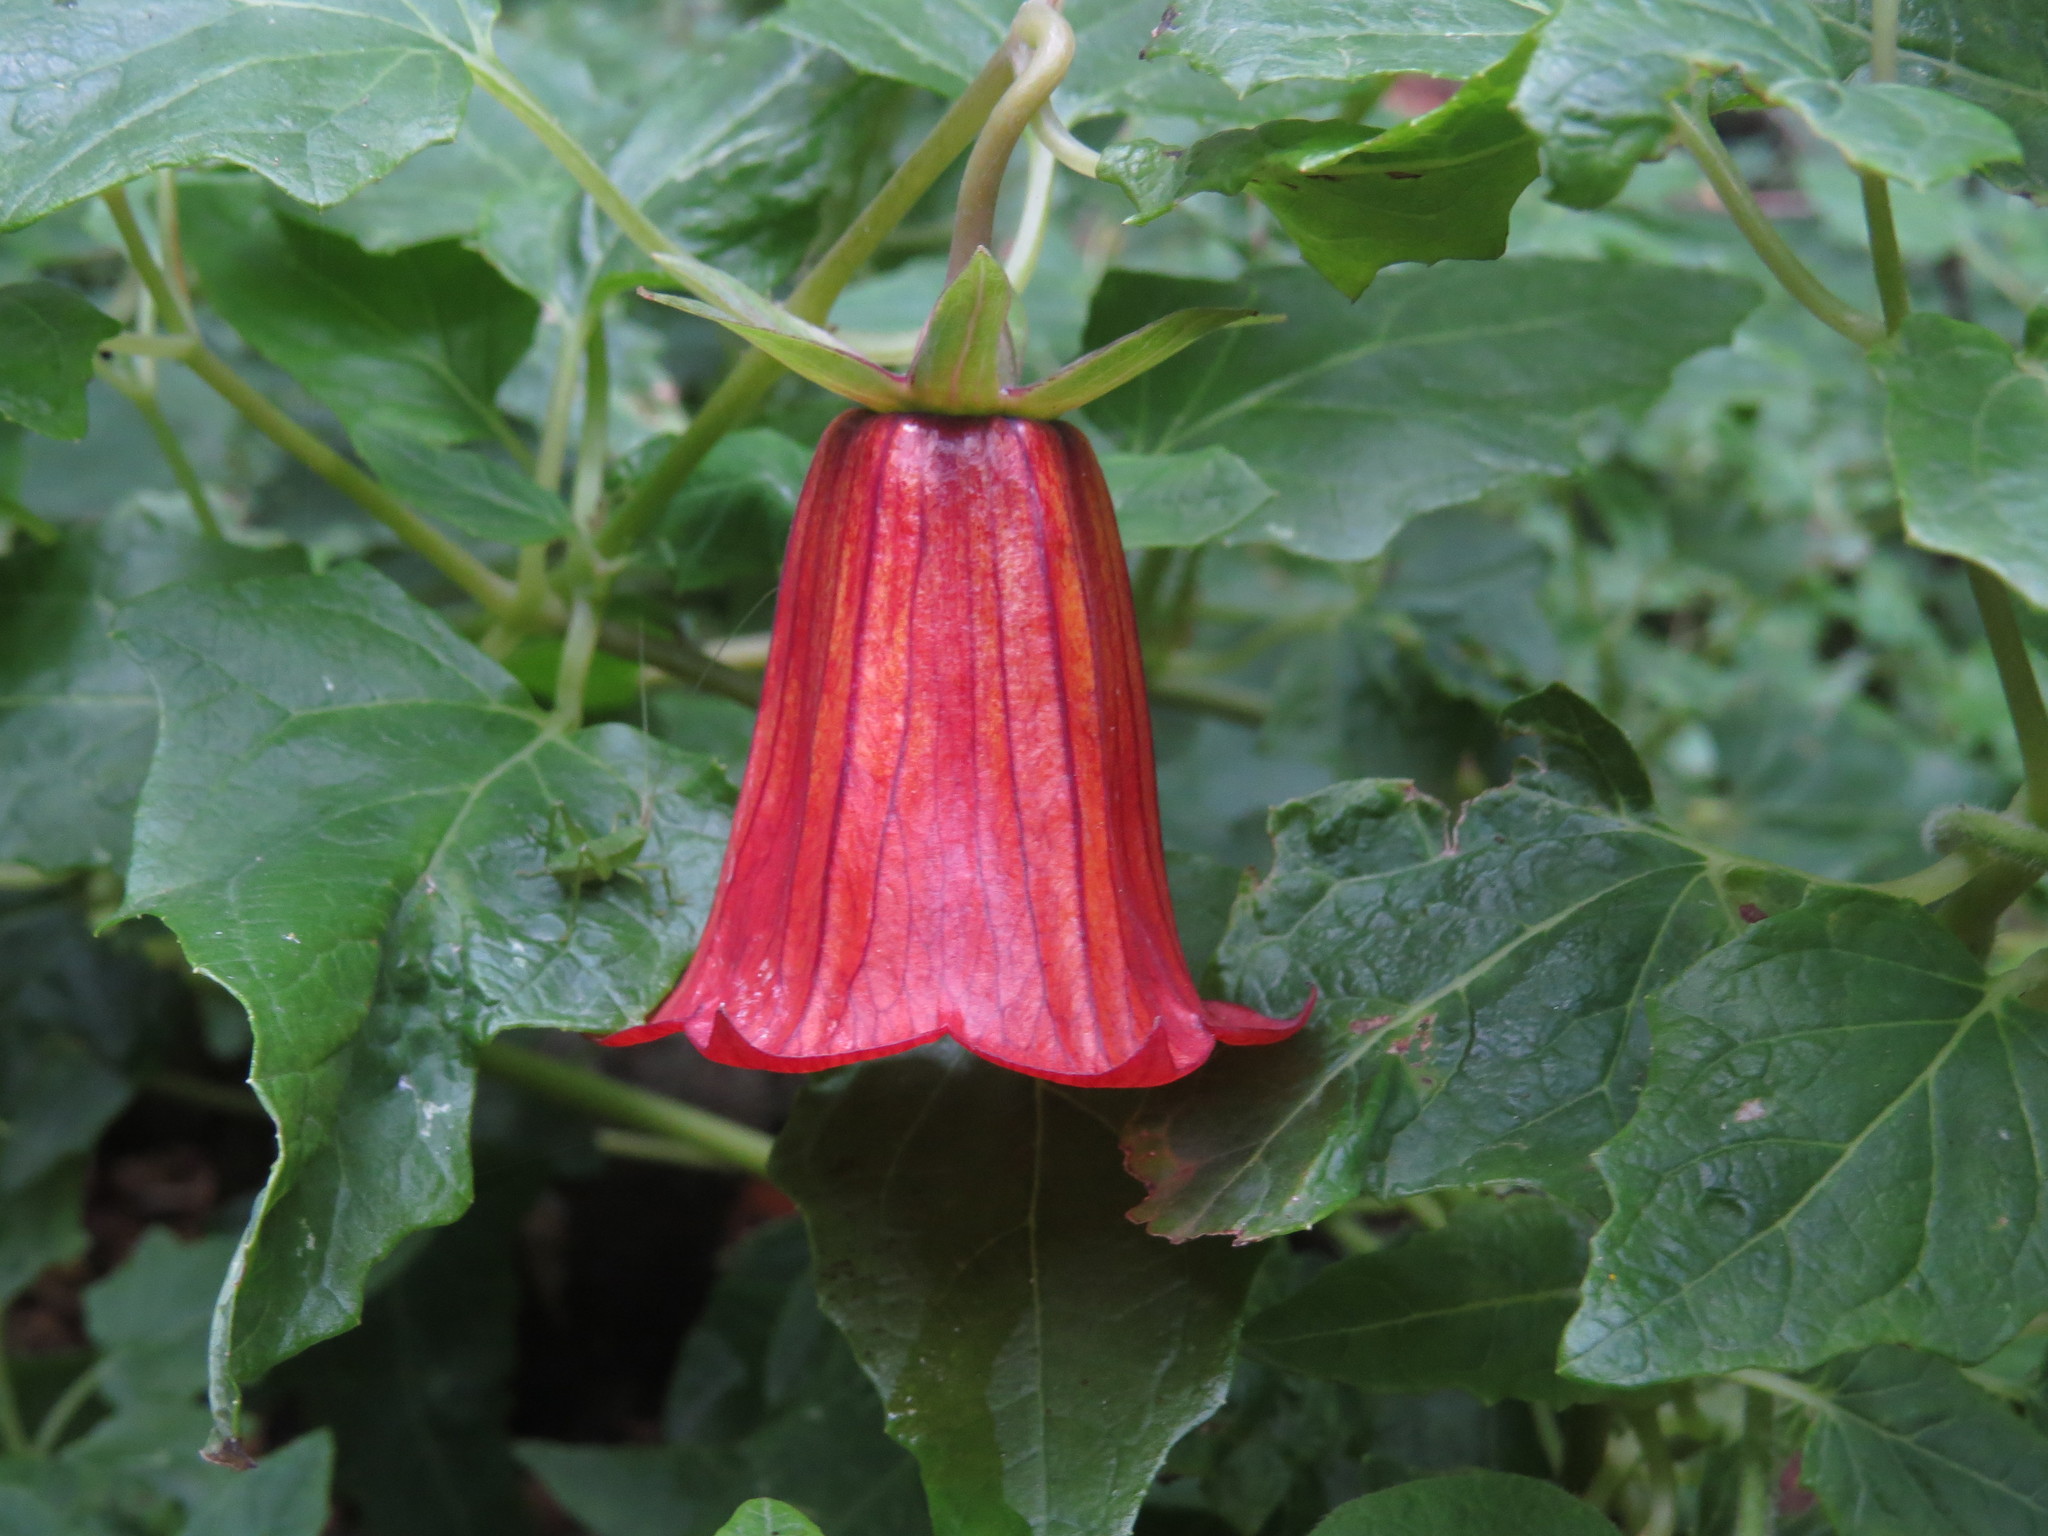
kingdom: Plantae
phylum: Tracheophyta
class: Magnoliopsida
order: Asterales
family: Campanulaceae
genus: Canarina
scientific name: Canarina canariensis
